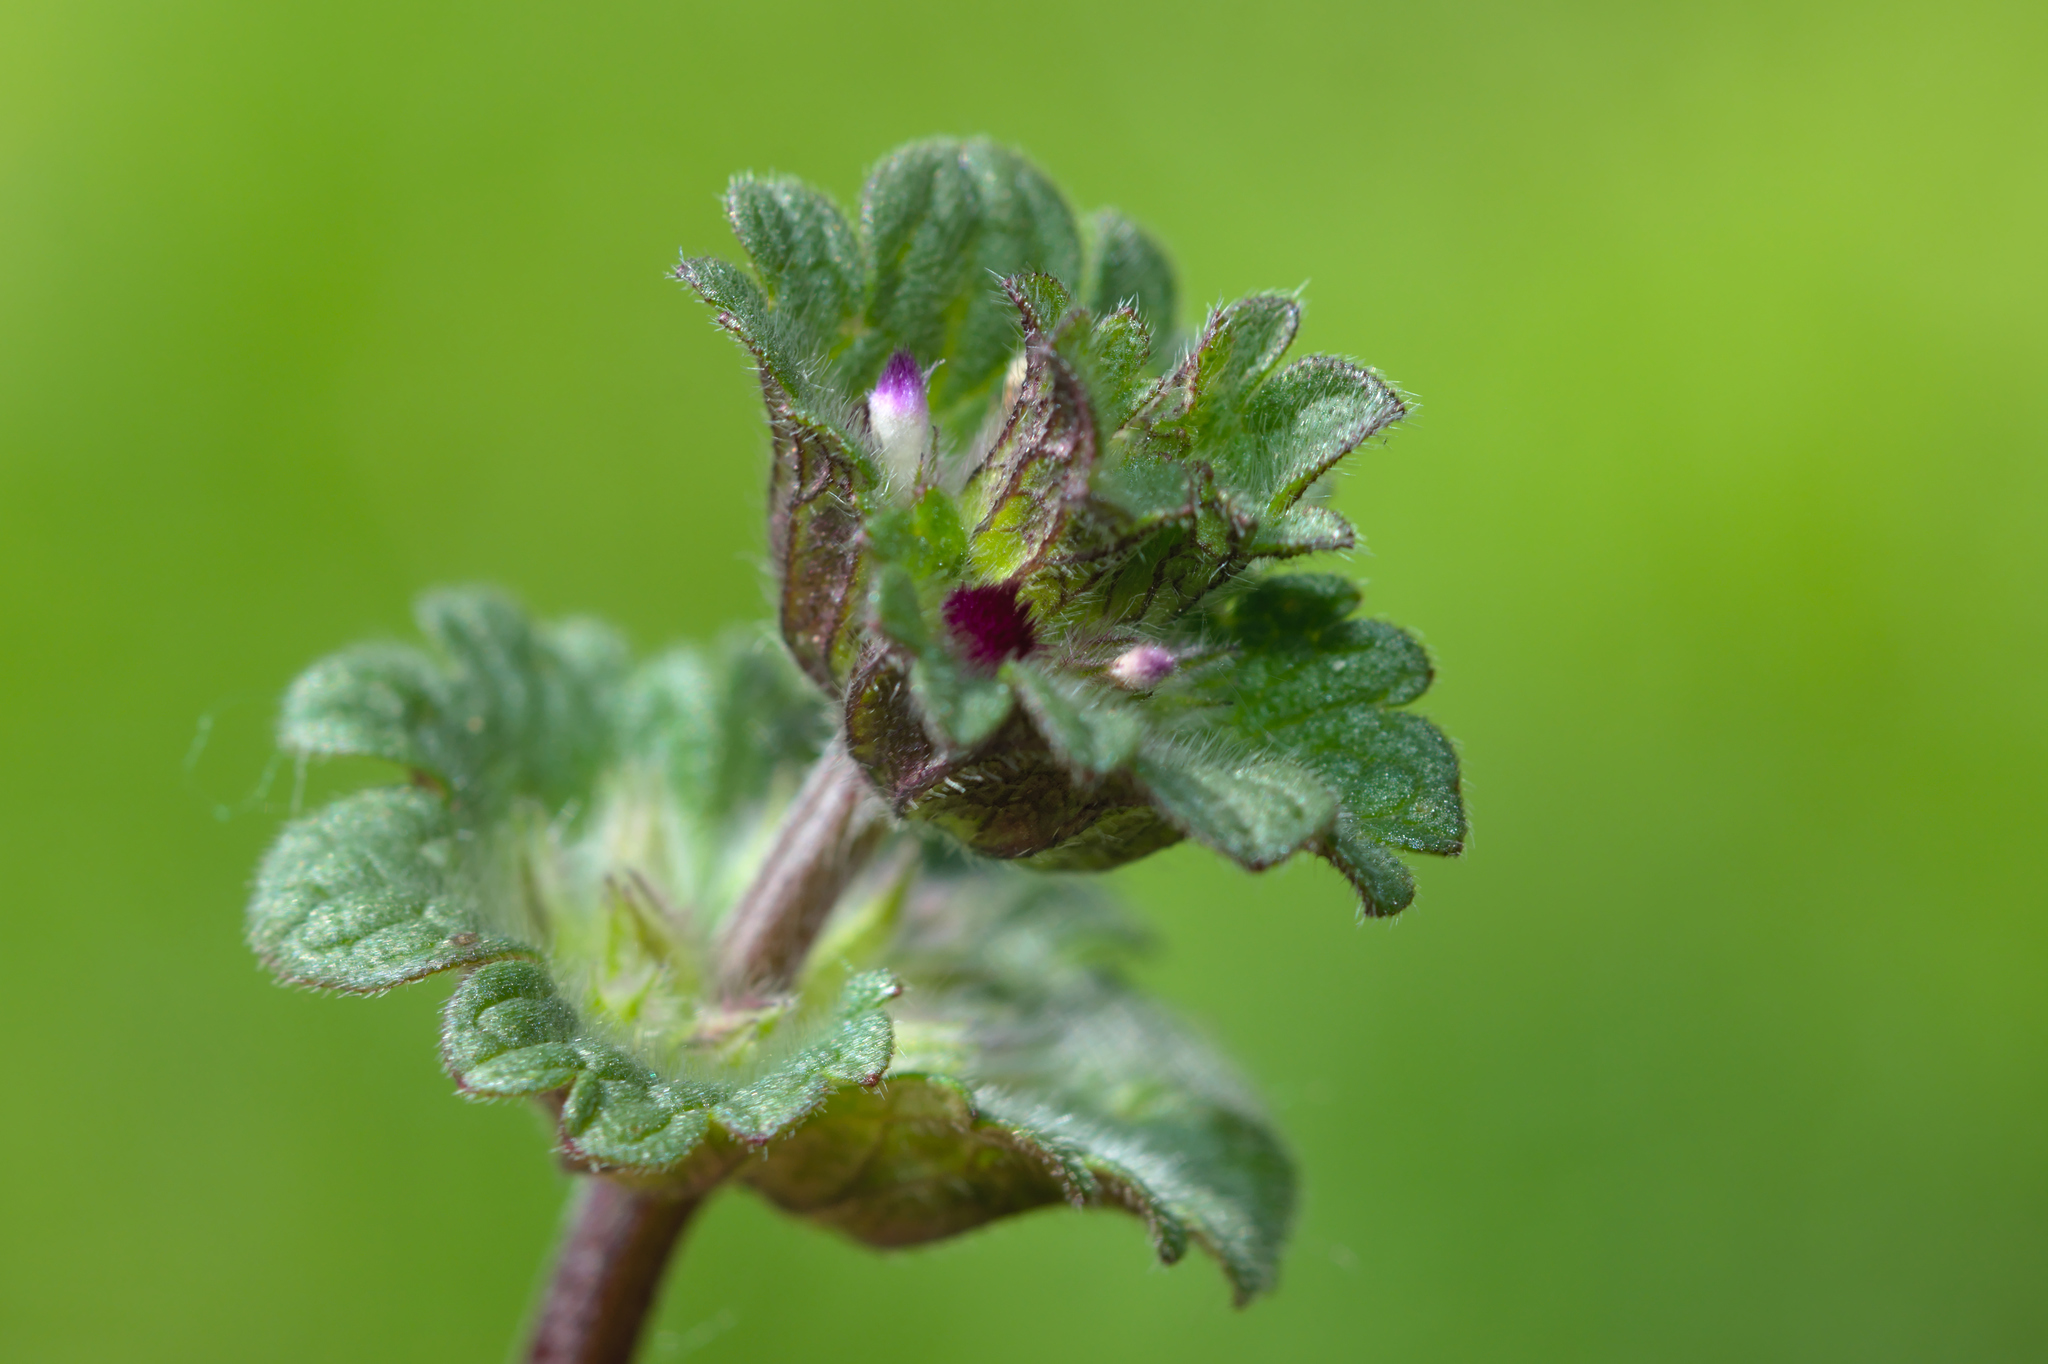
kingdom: Plantae
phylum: Tracheophyta
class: Magnoliopsida
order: Lamiales
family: Lamiaceae
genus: Lamium
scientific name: Lamium amplexicaule
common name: Henbit dead-nettle
